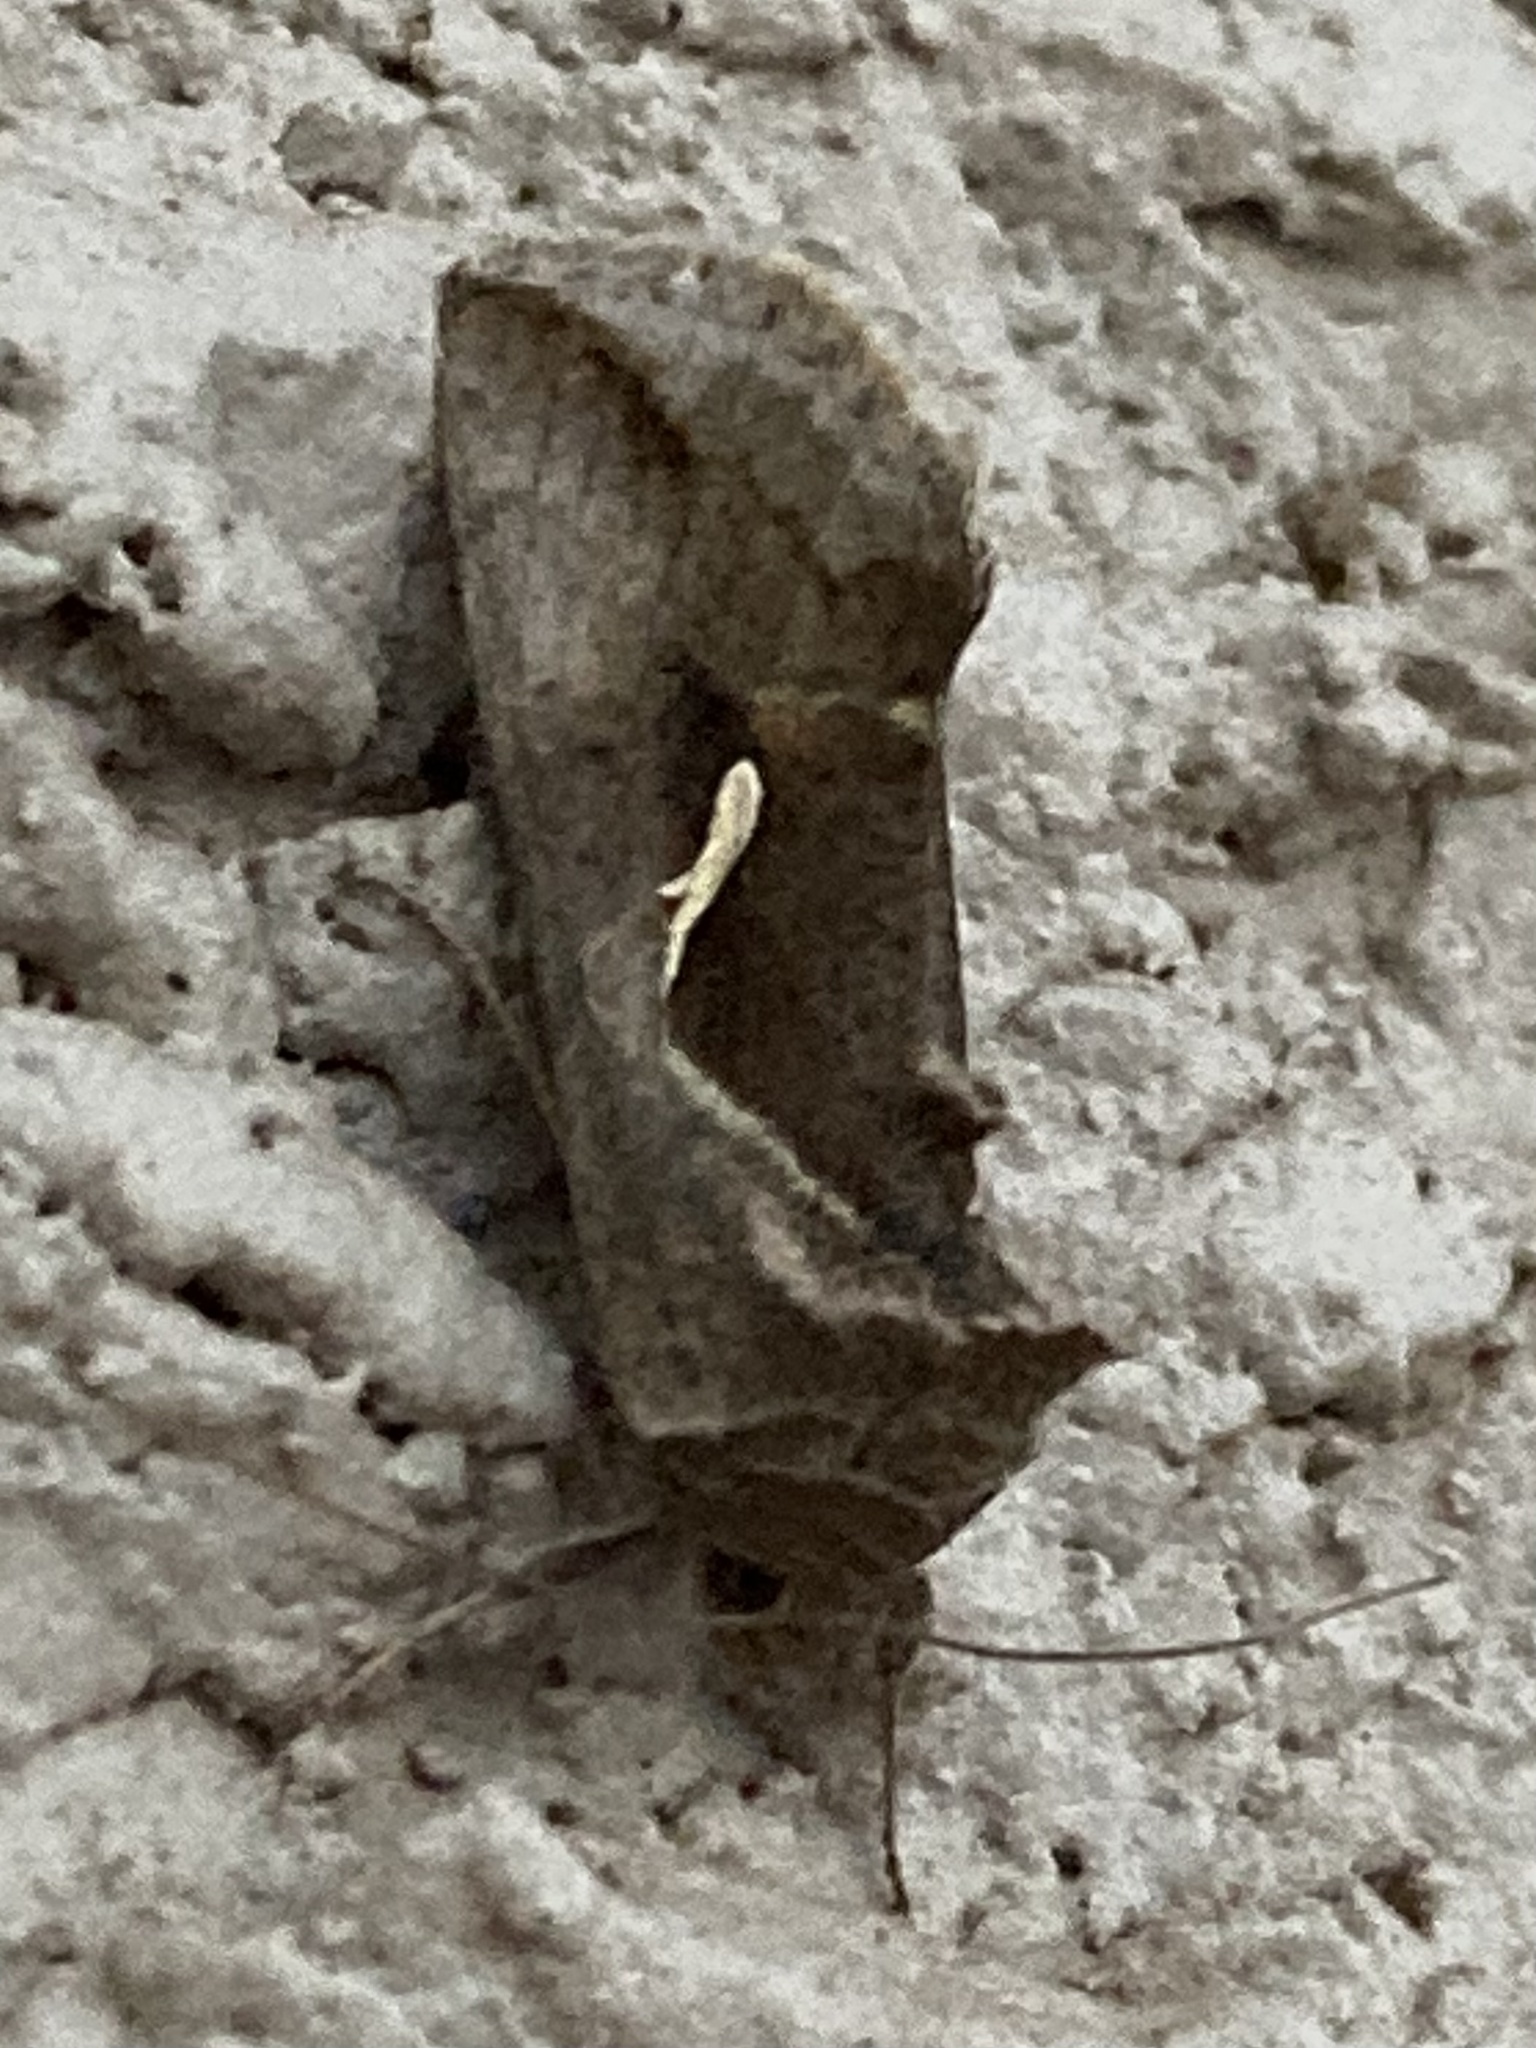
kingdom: Animalia
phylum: Arthropoda
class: Insecta
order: Lepidoptera
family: Noctuidae
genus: Anagrapha
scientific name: Anagrapha falcifera
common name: Celery looper
